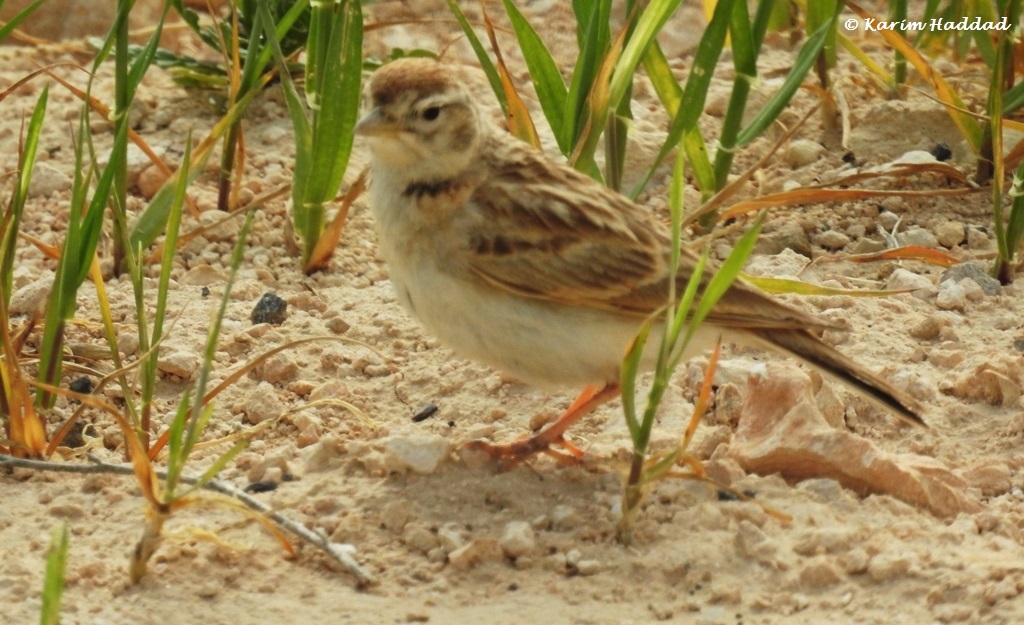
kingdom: Animalia
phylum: Chordata
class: Aves
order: Passeriformes
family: Alaudidae
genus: Calandrella
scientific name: Calandrella brachydactyla
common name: Greater short-toed lark
